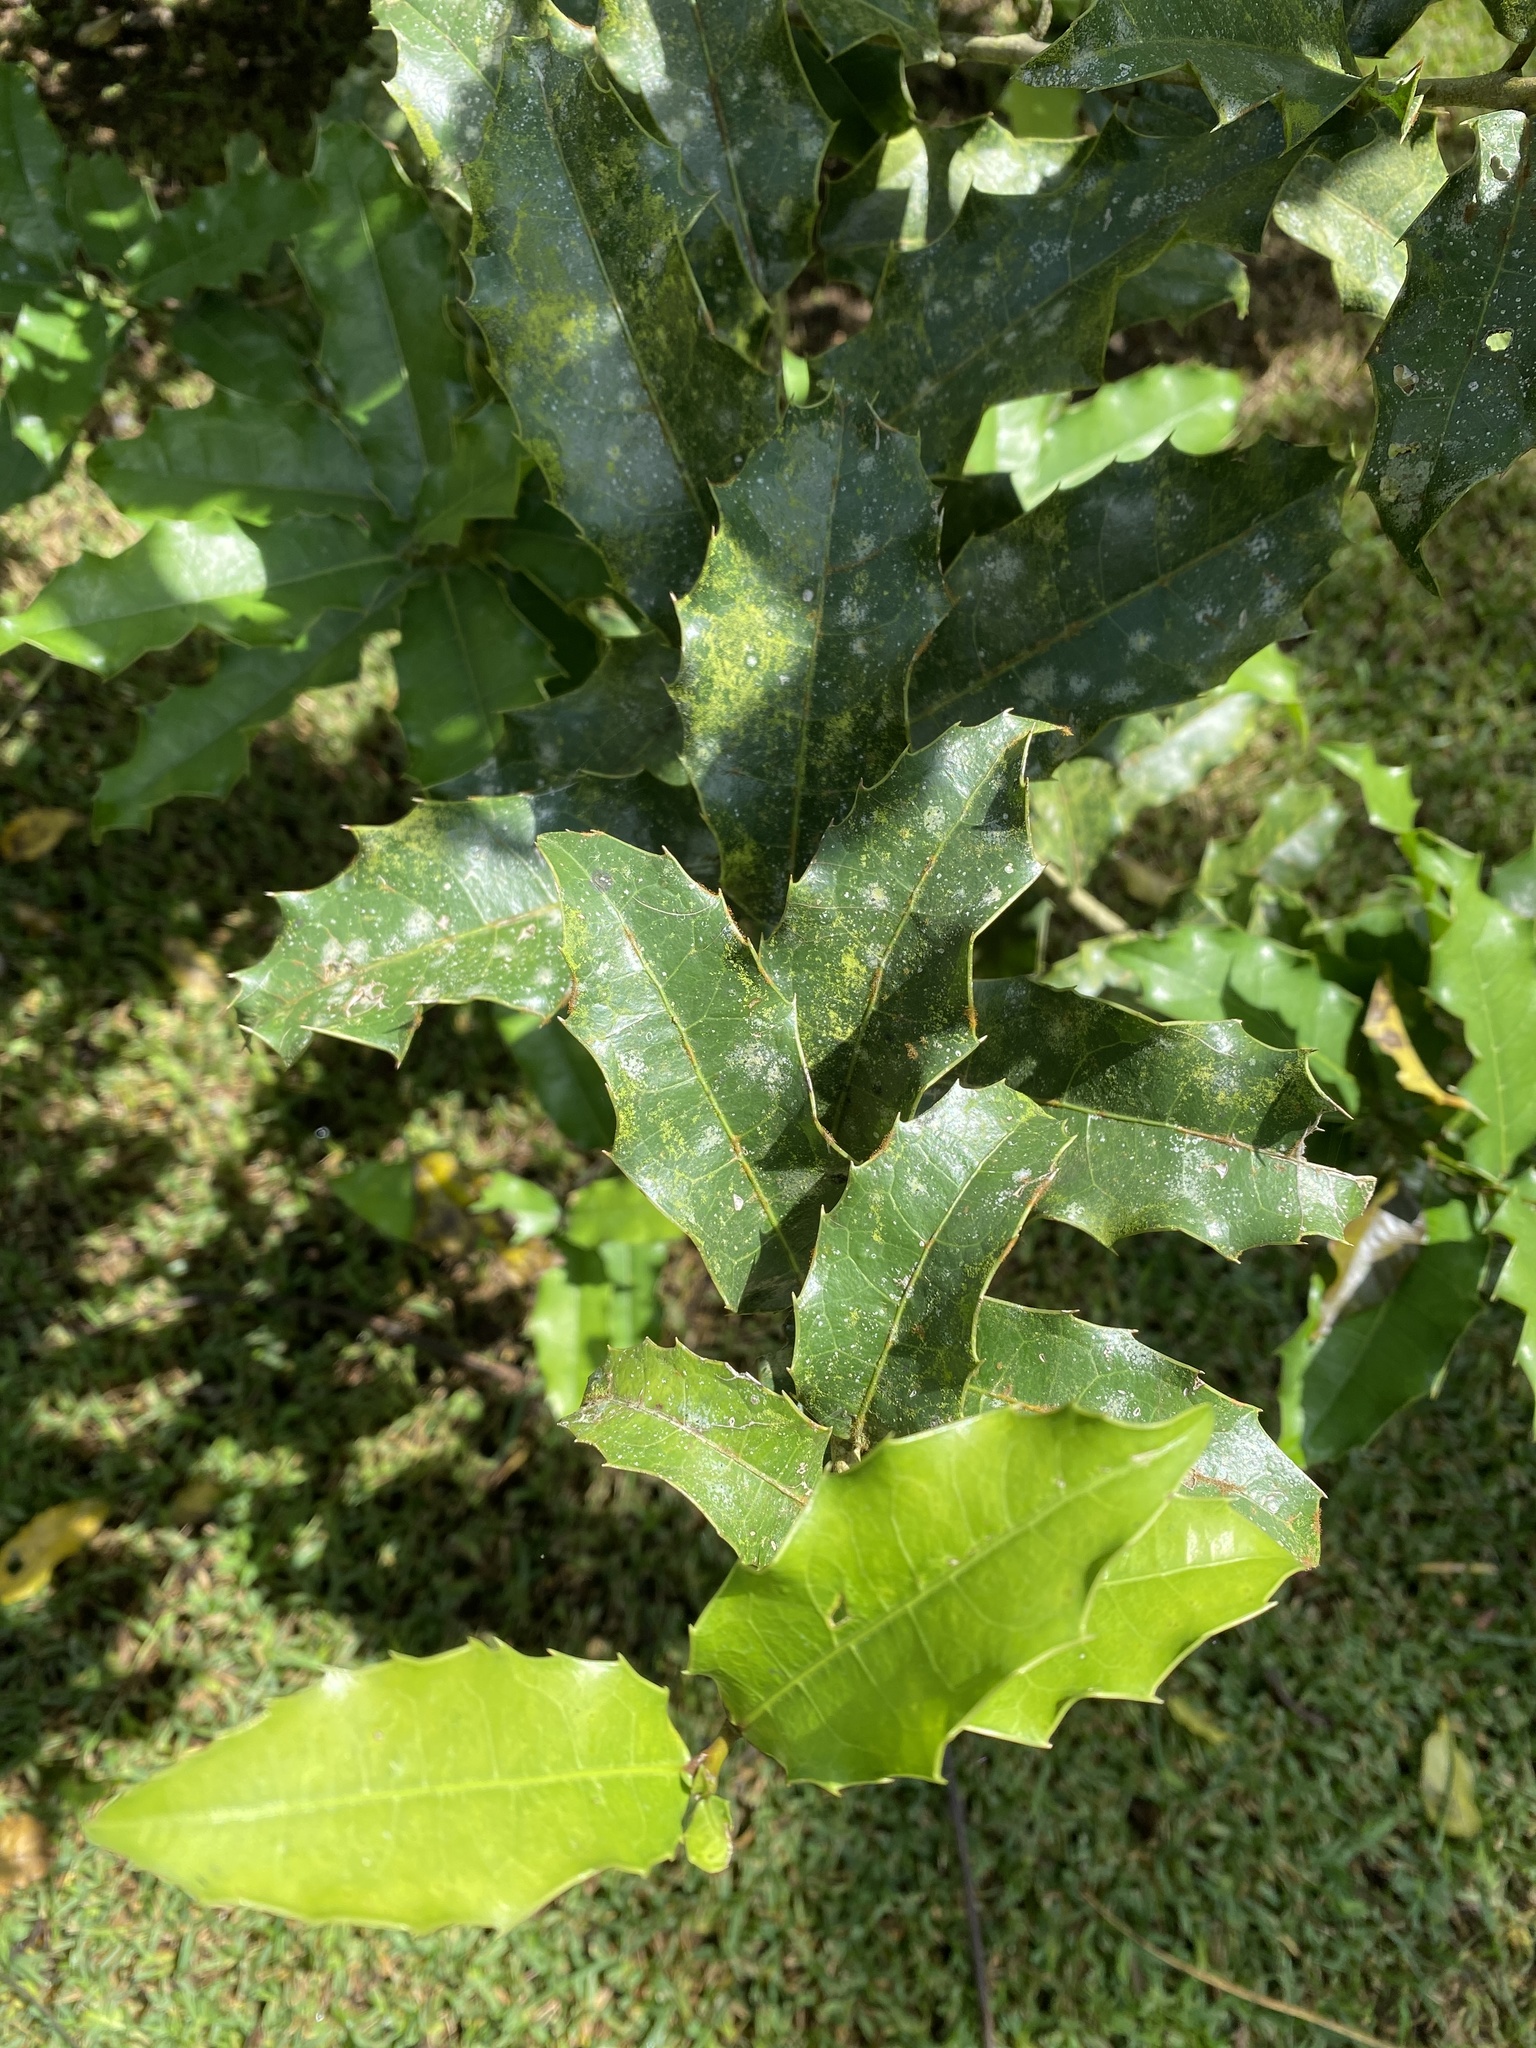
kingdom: Plantae
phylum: Tracheophyta
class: Magnoliopsida
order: Malpighiales
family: Salicaceae
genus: Olmediella
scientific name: Olmediella betschleriana
